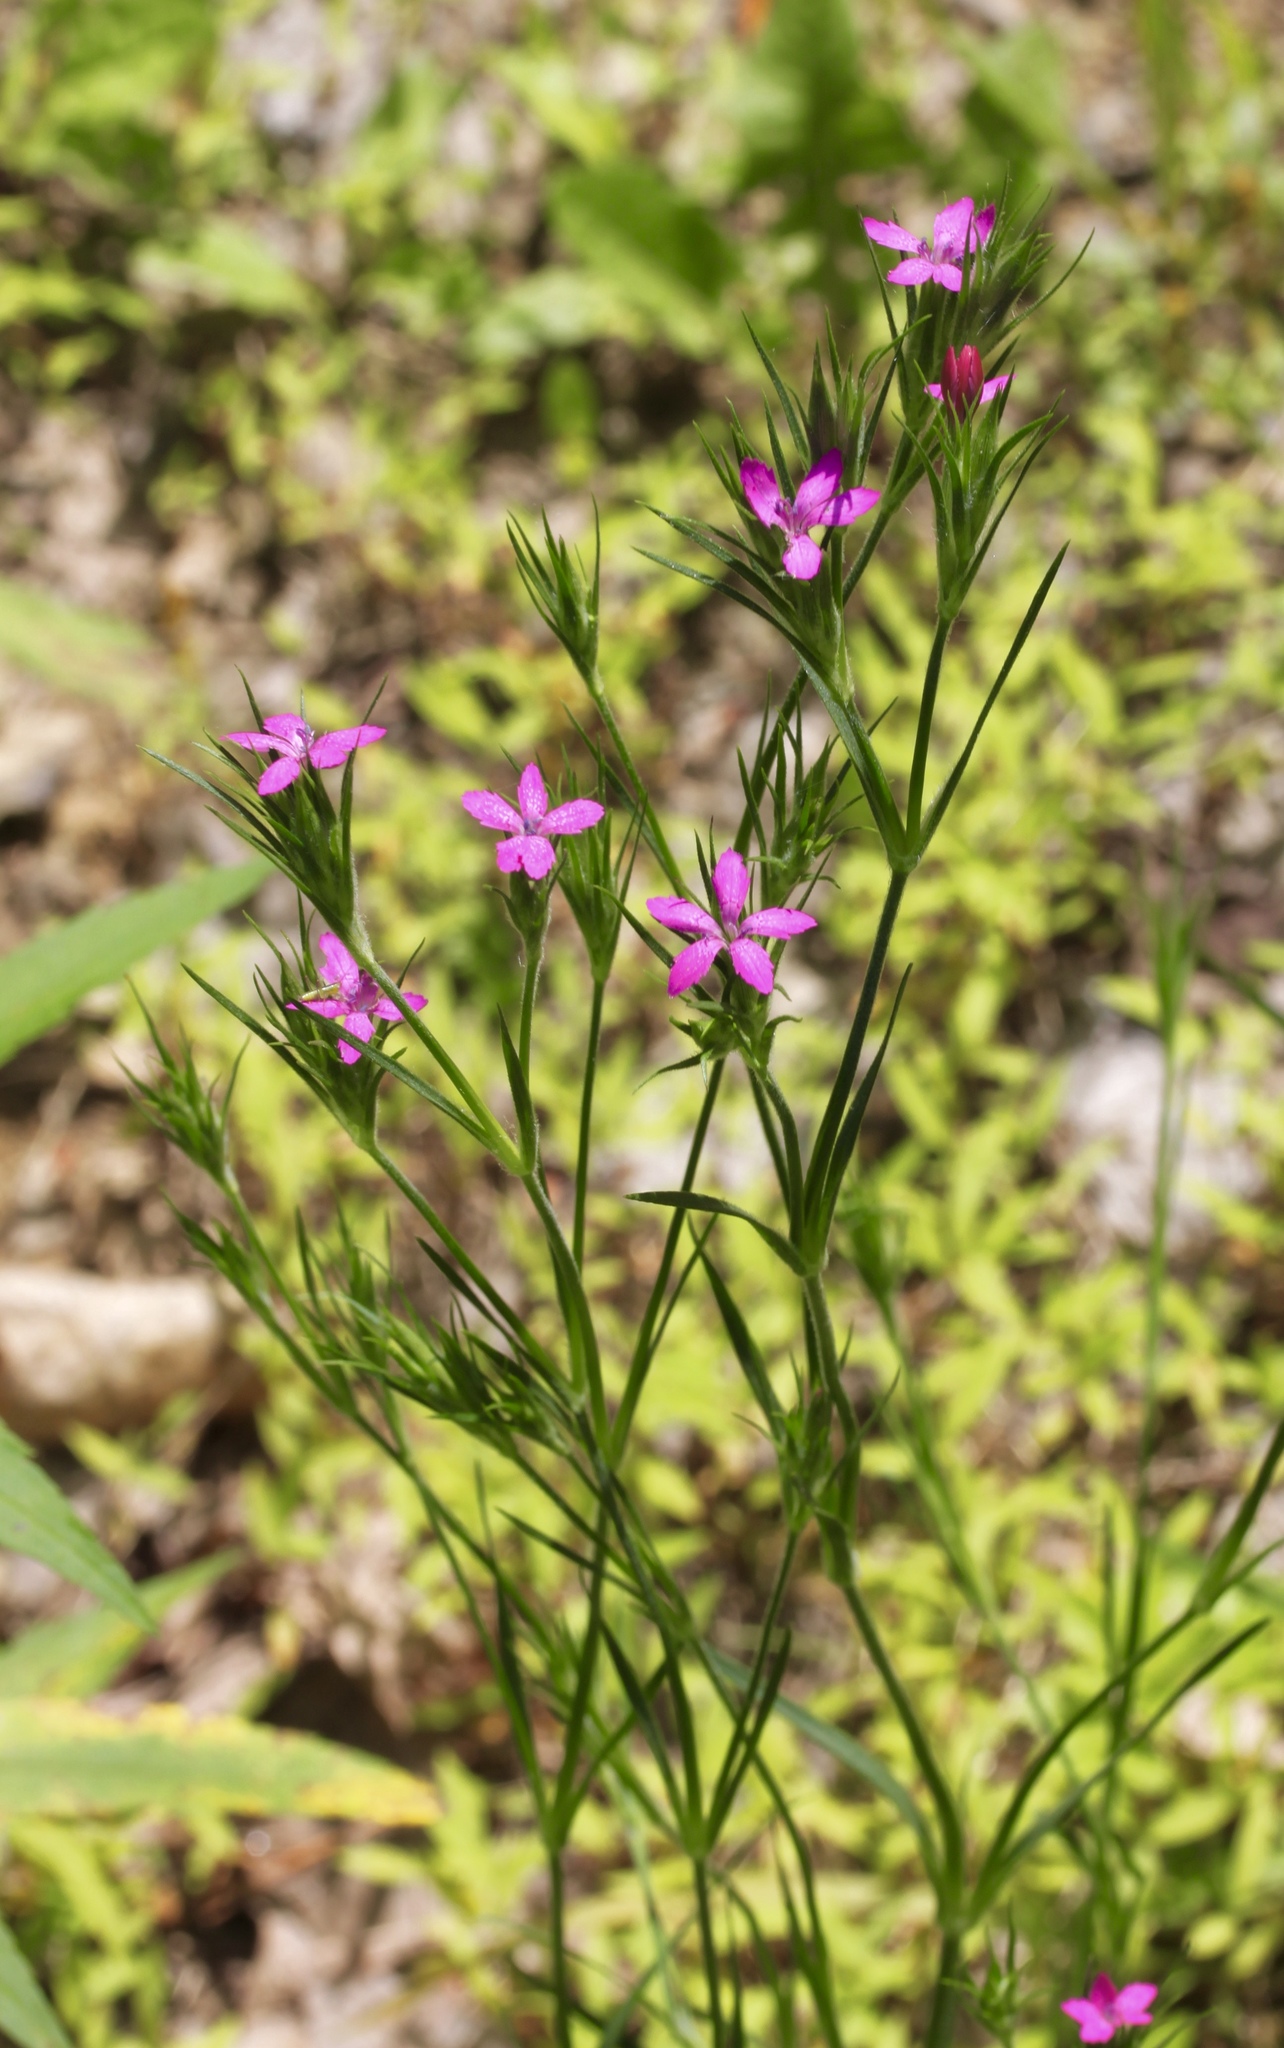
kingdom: Plantae
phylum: Tracheophyta
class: Magnoliopsida
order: Caryophyllales
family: Caryophyllaceae
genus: Dianthus
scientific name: Dianthus armeria
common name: Deptford pink
